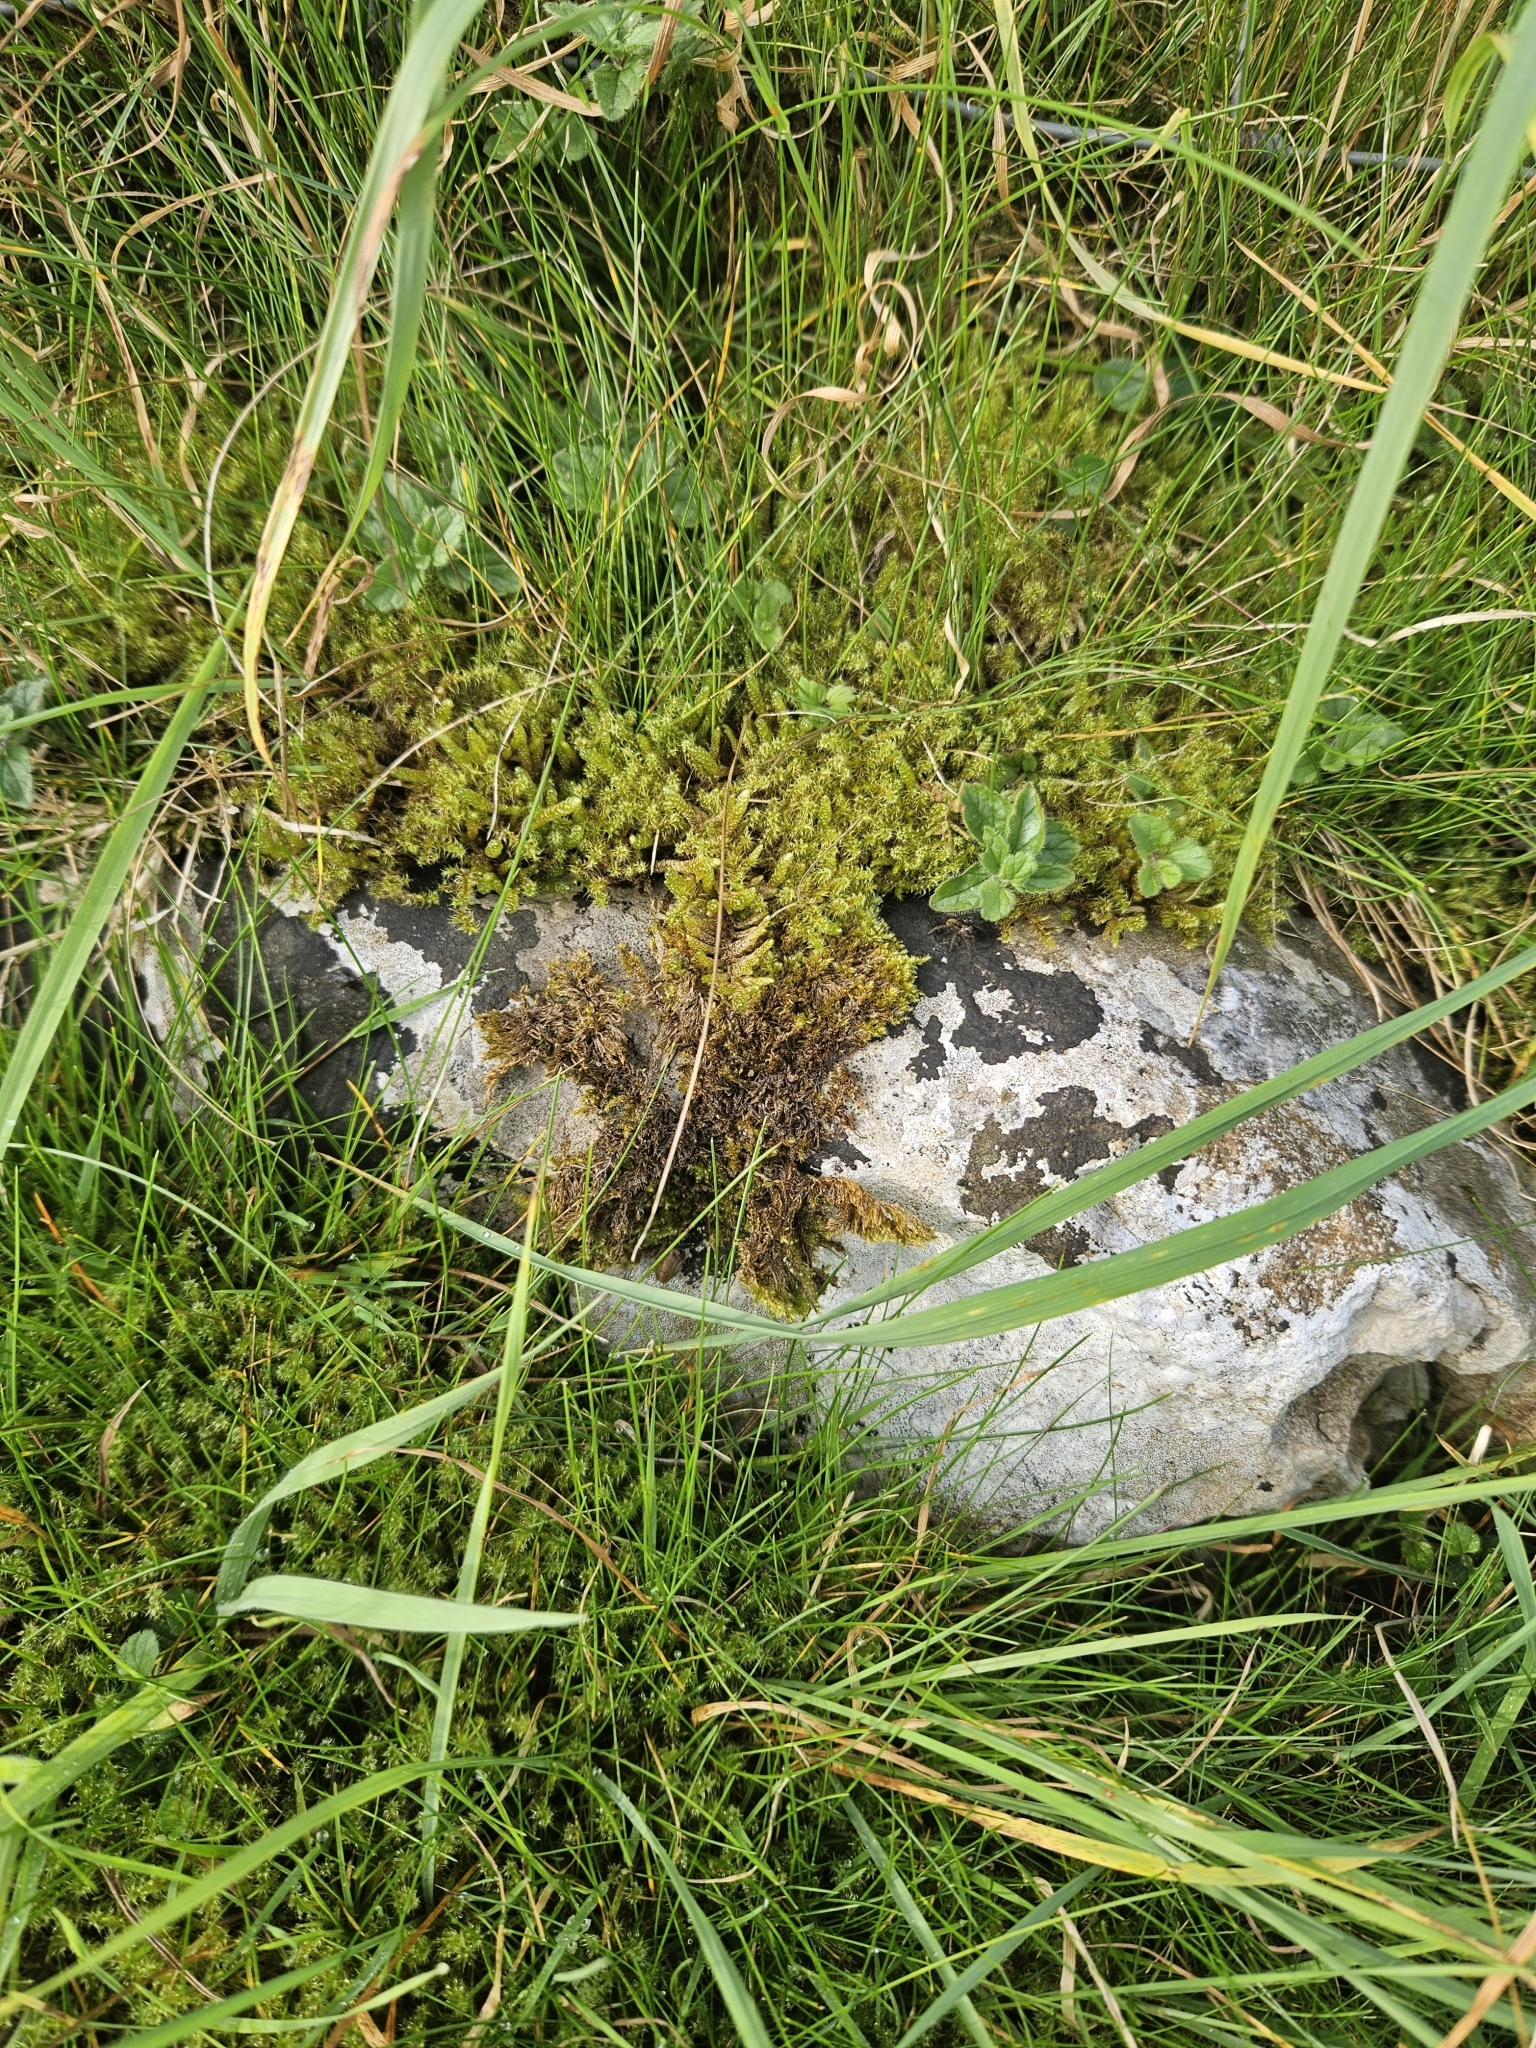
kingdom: Plantae
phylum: Bryophyta
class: Bryopsida
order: Hypnales
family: Hylocomiaceae
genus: Rhytidiadelphus
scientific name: Rhytidiadelphus squarrosus
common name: Springy turf-moss
